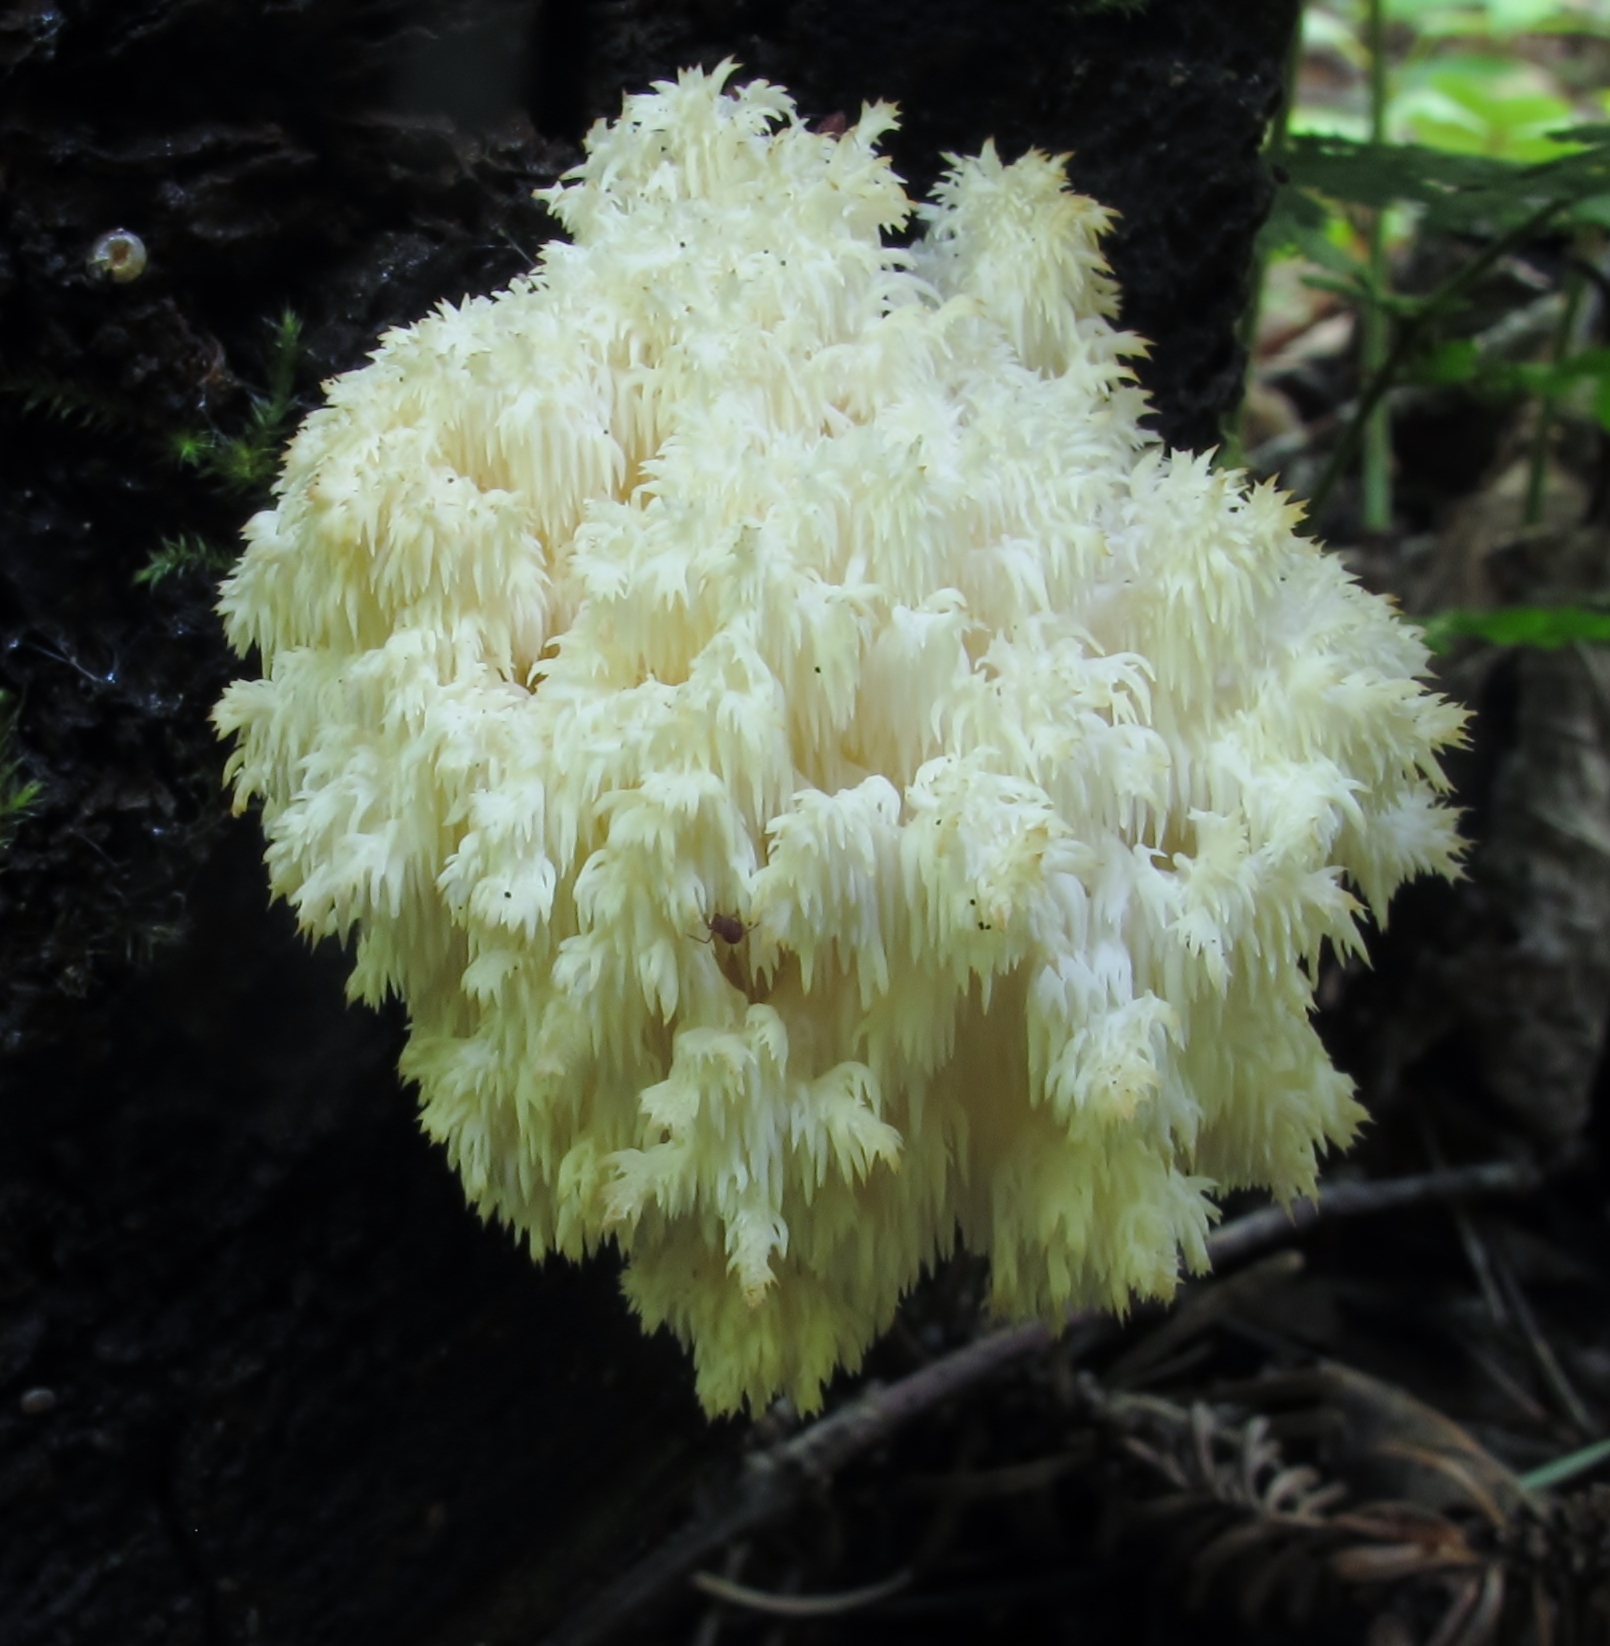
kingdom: Fungi
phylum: Basidiomycota
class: Agaricomycetes
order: Russulales
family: Hericiaceae
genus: Hericium
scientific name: Hericium coralloides
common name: Coral tooth
